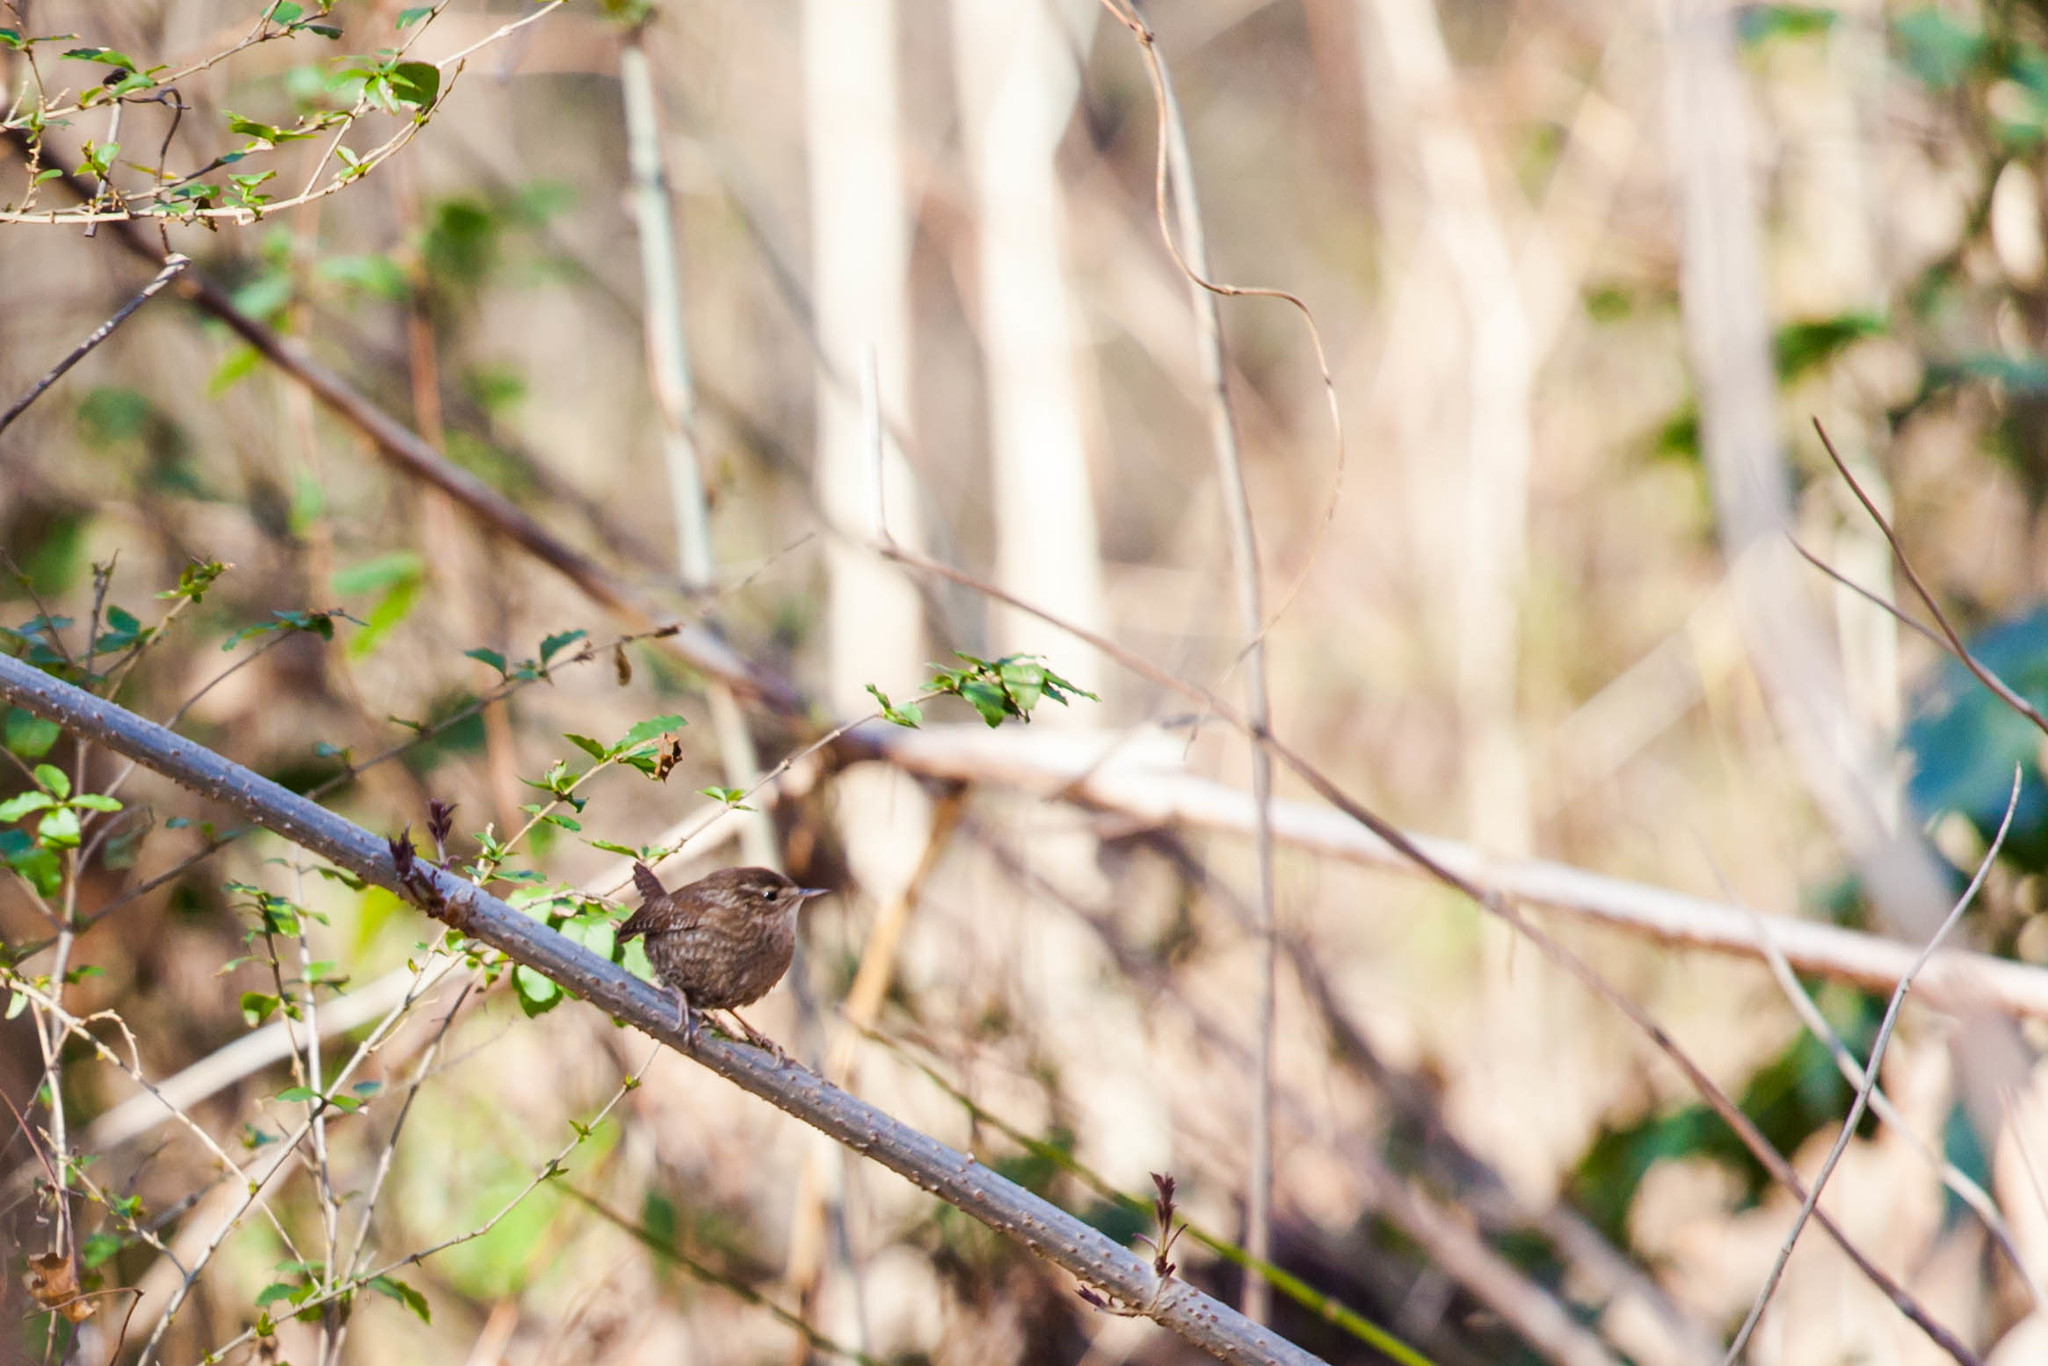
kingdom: Animalia
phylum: Chordata
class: Aves
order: Passeriformes
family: Troglodytidae
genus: Troglodytes
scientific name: Troglodytes hiemalis
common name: Winter wren
